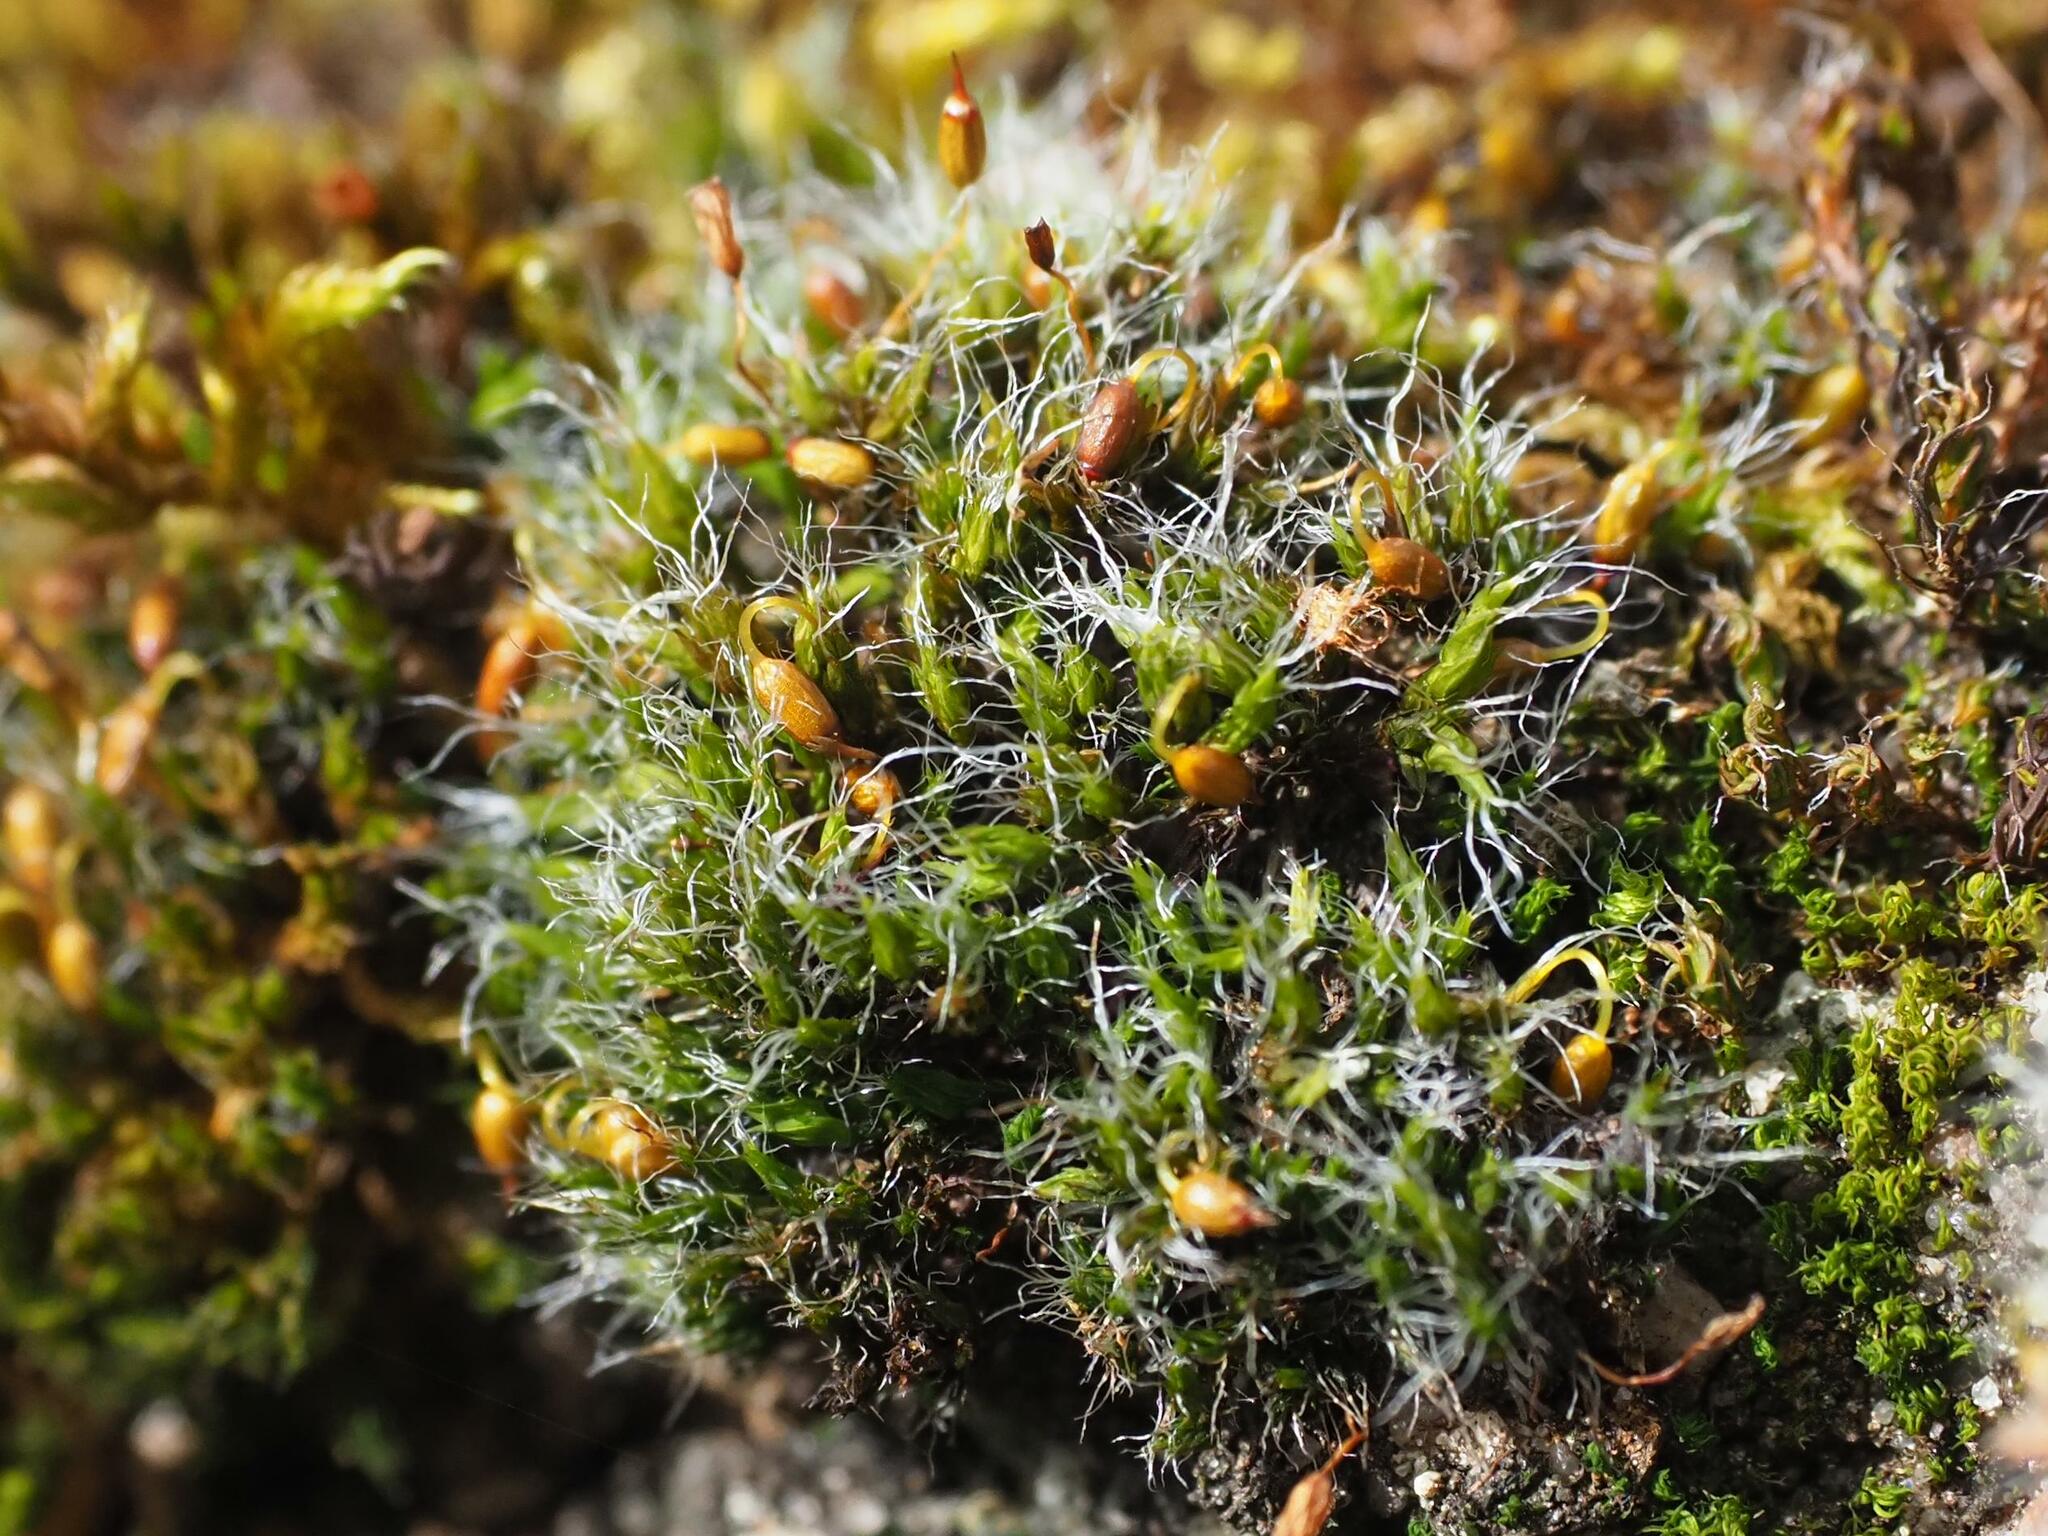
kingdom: Plantae
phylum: Bryophyta
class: Bryopsida
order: Grimmiales
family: Grimmiaceae
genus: Grimmia
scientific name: Grimmia pulvinata
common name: Grey-cushioned grimmia
